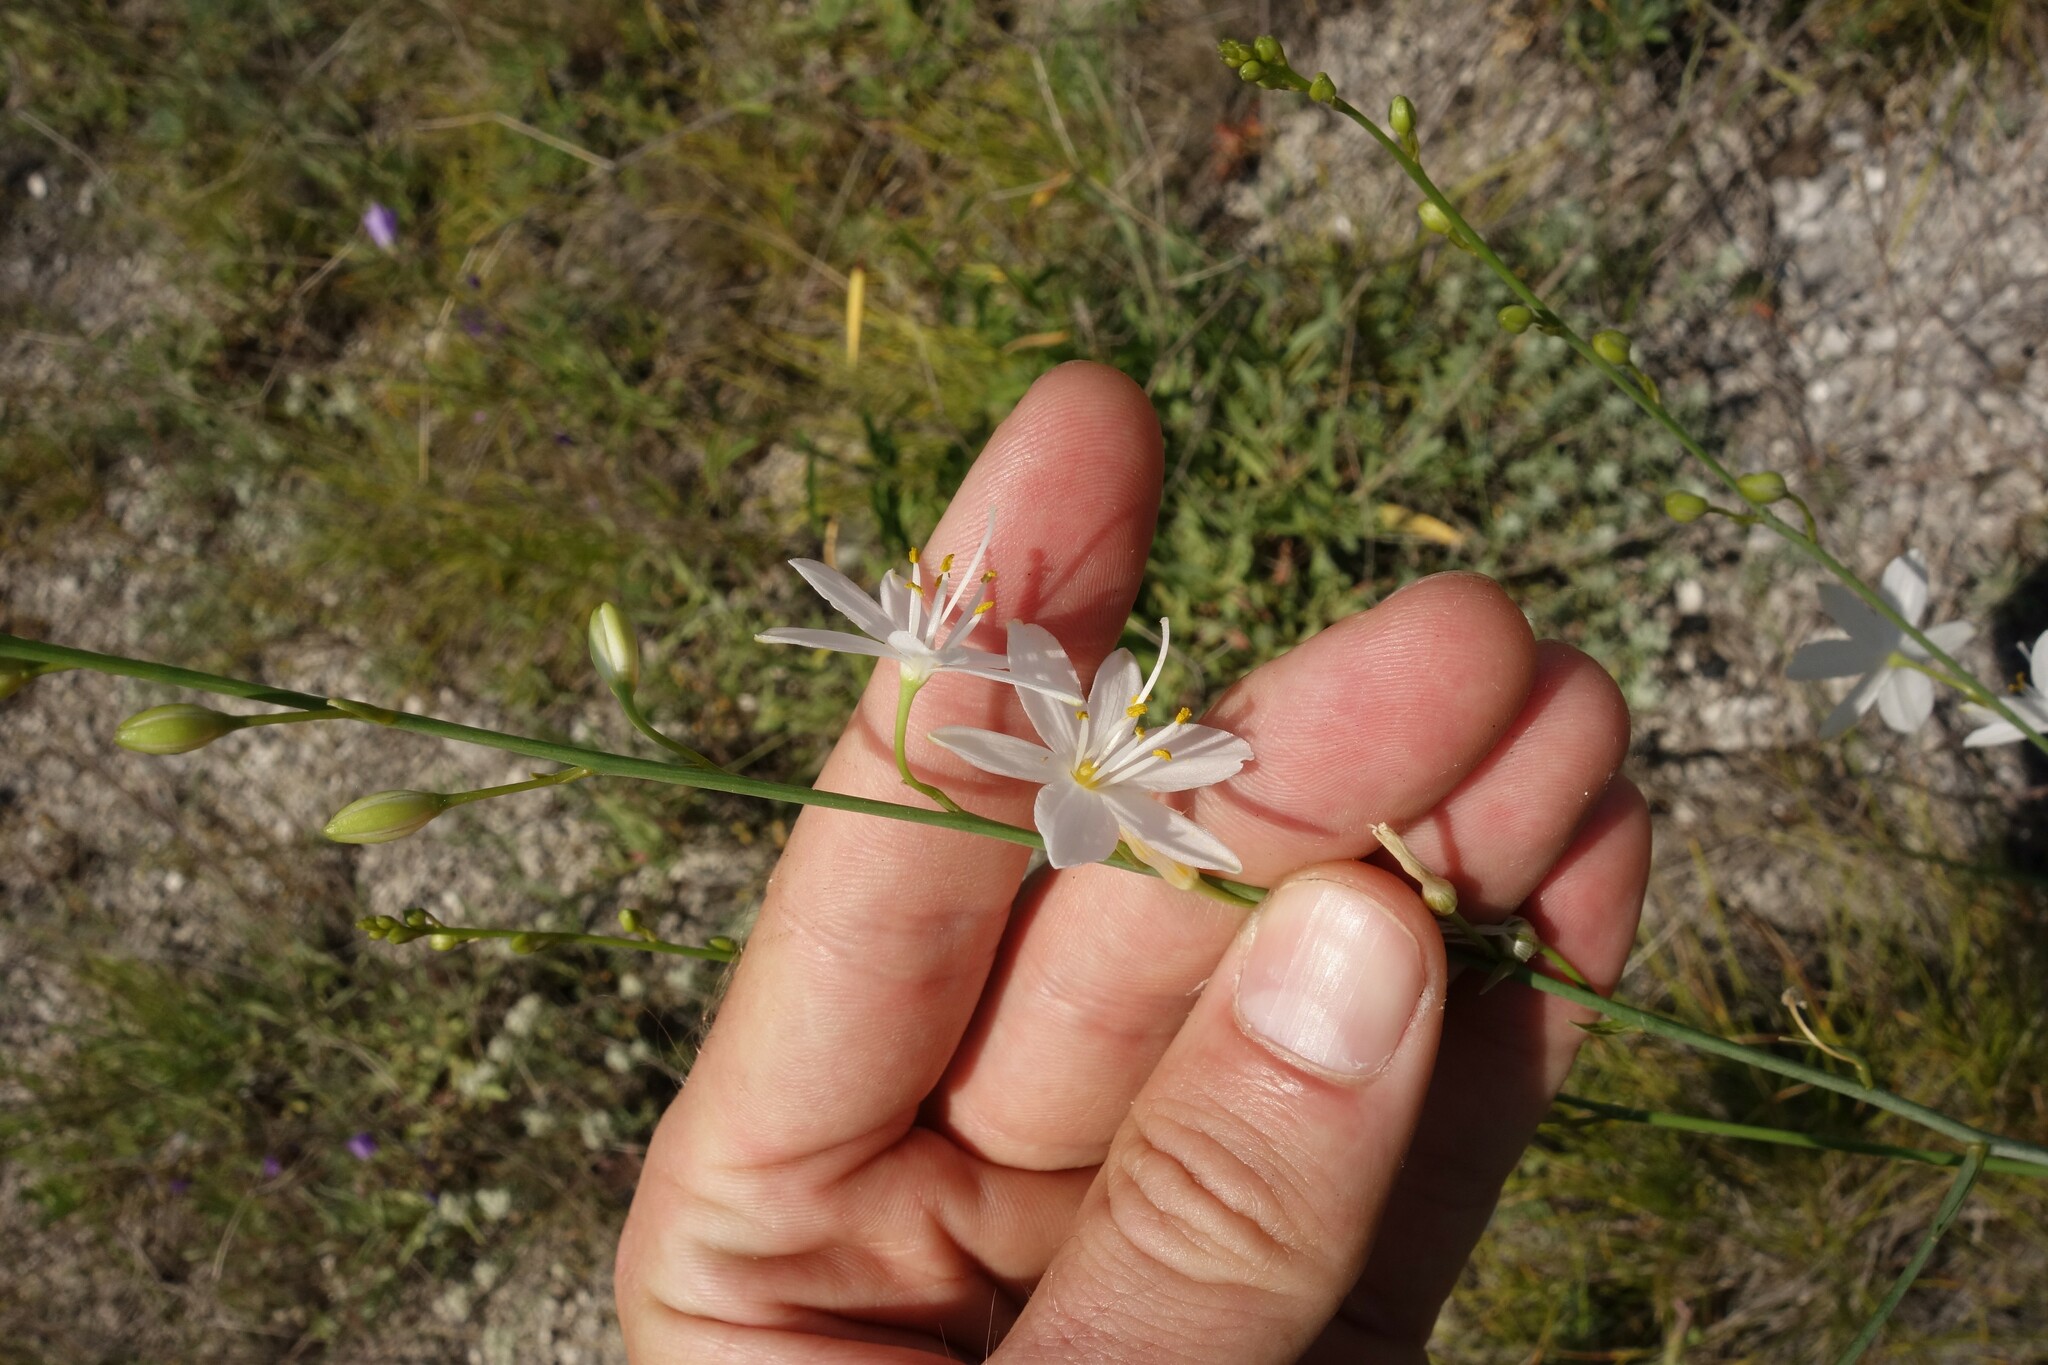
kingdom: Plantae
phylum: Tracheophyta
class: Liliopsida
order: Asparagales
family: Asparagaceae
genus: Anthericum
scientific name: Anthericum ramosum
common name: Branched st. bernard's-lily
